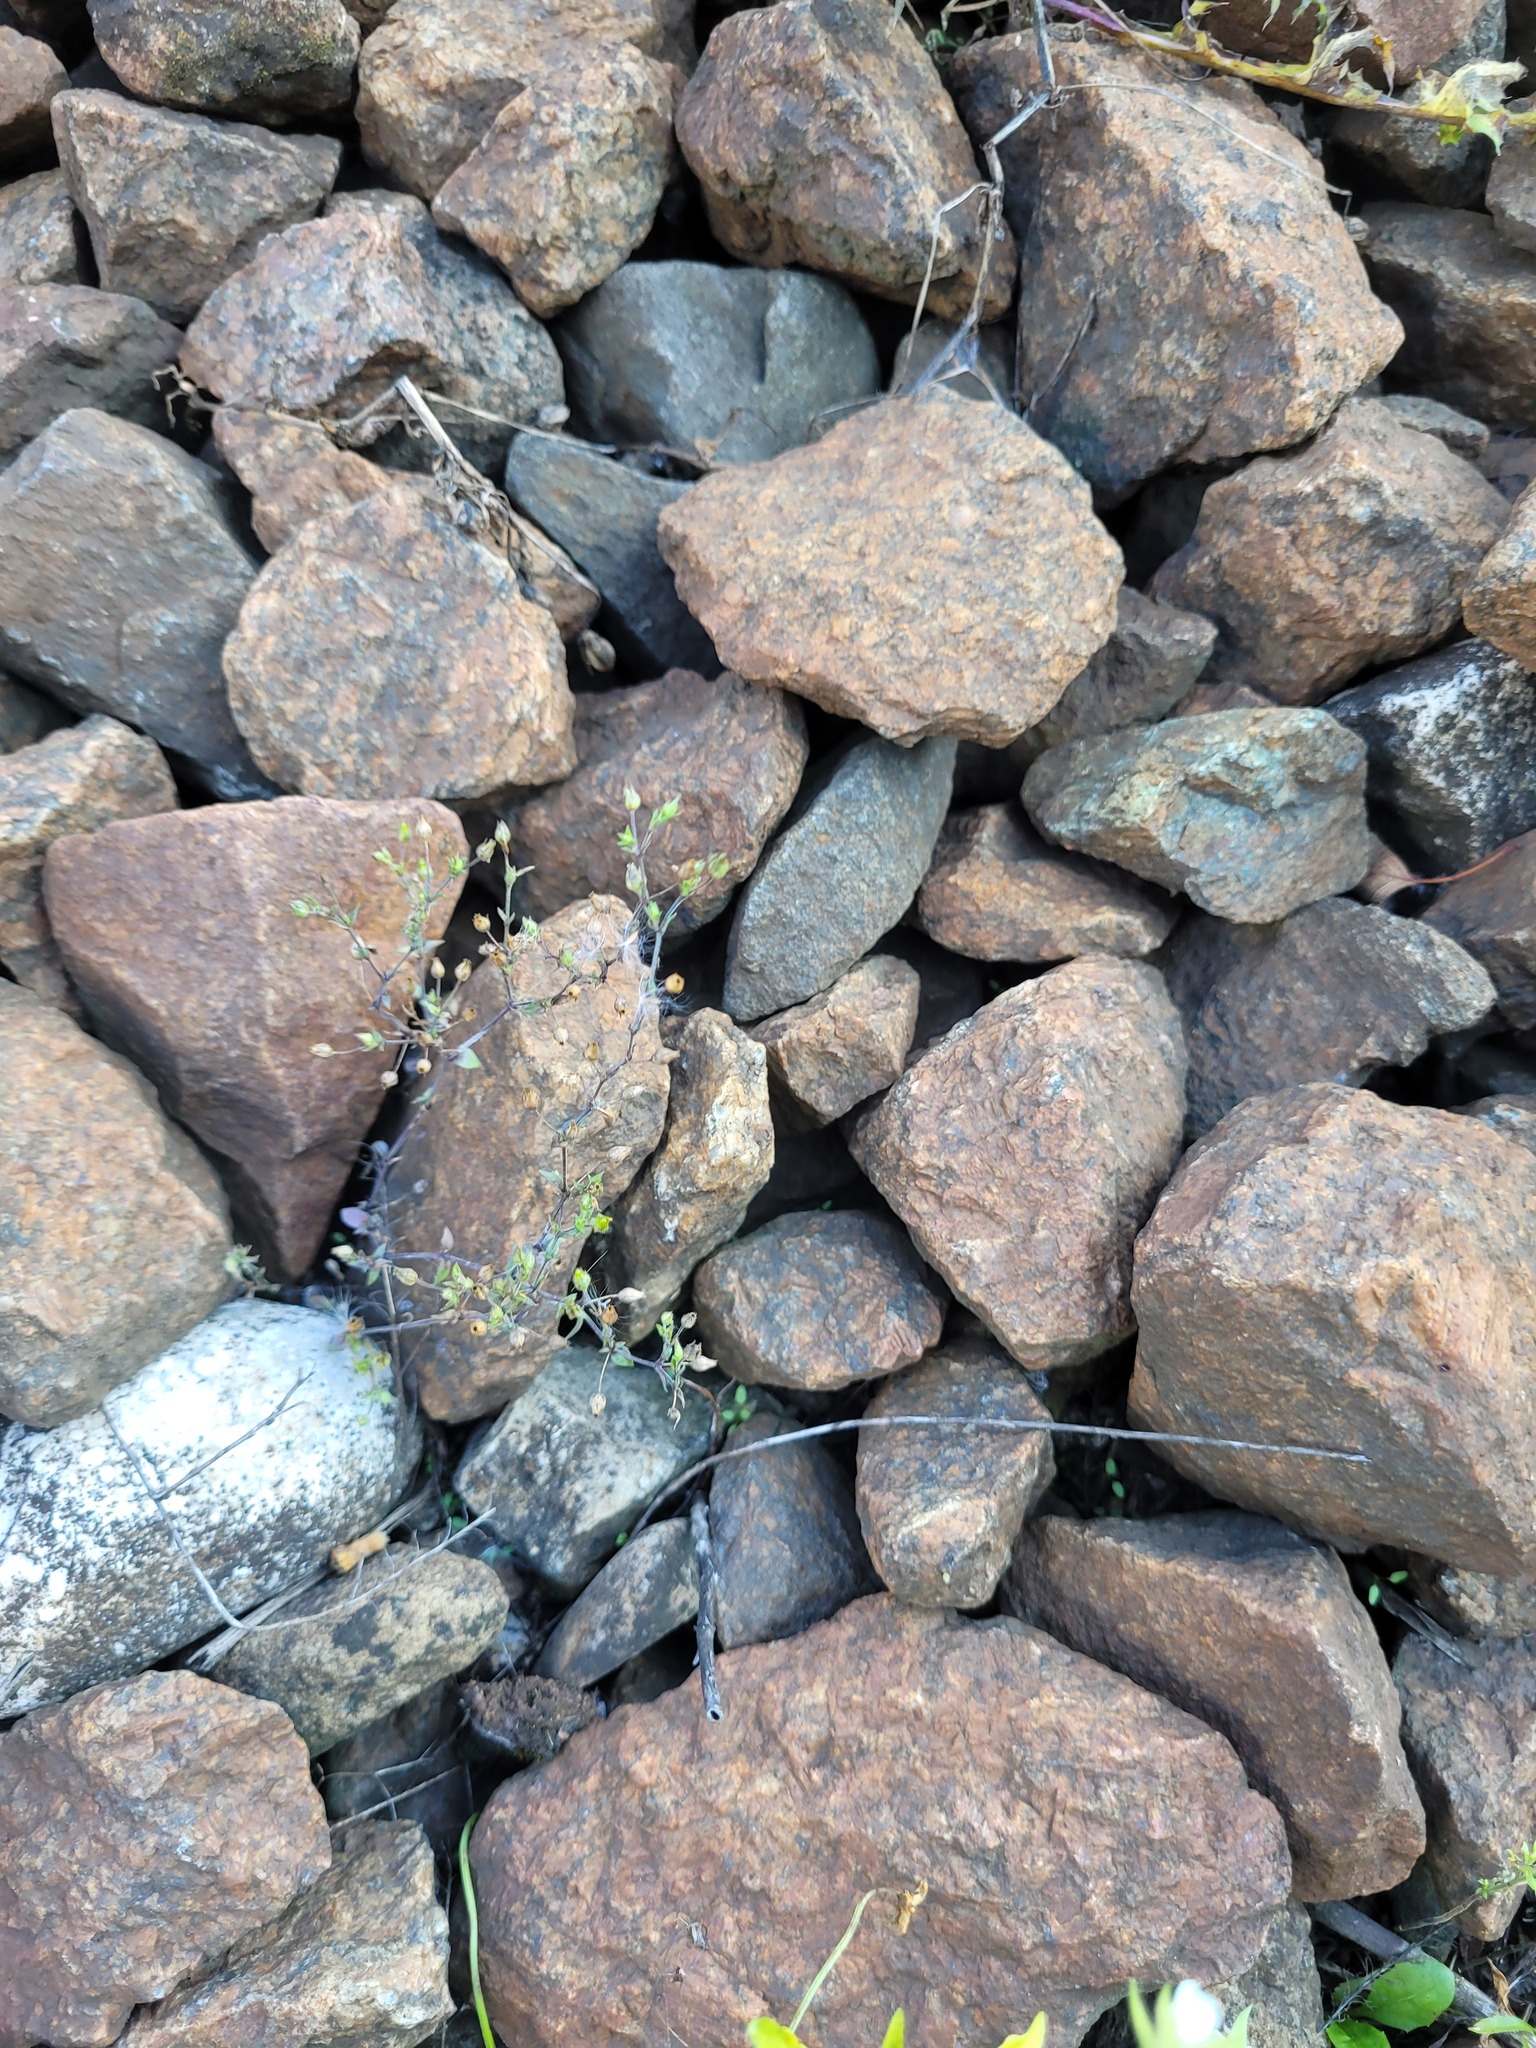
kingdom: Plantae
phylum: Tracheophyta
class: Magnoliopsida
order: Caryophyllales
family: Caryophyllaceae
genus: Arenaria
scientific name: Arenaria serpyllifolia
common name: Thyme-leaved sandwort
